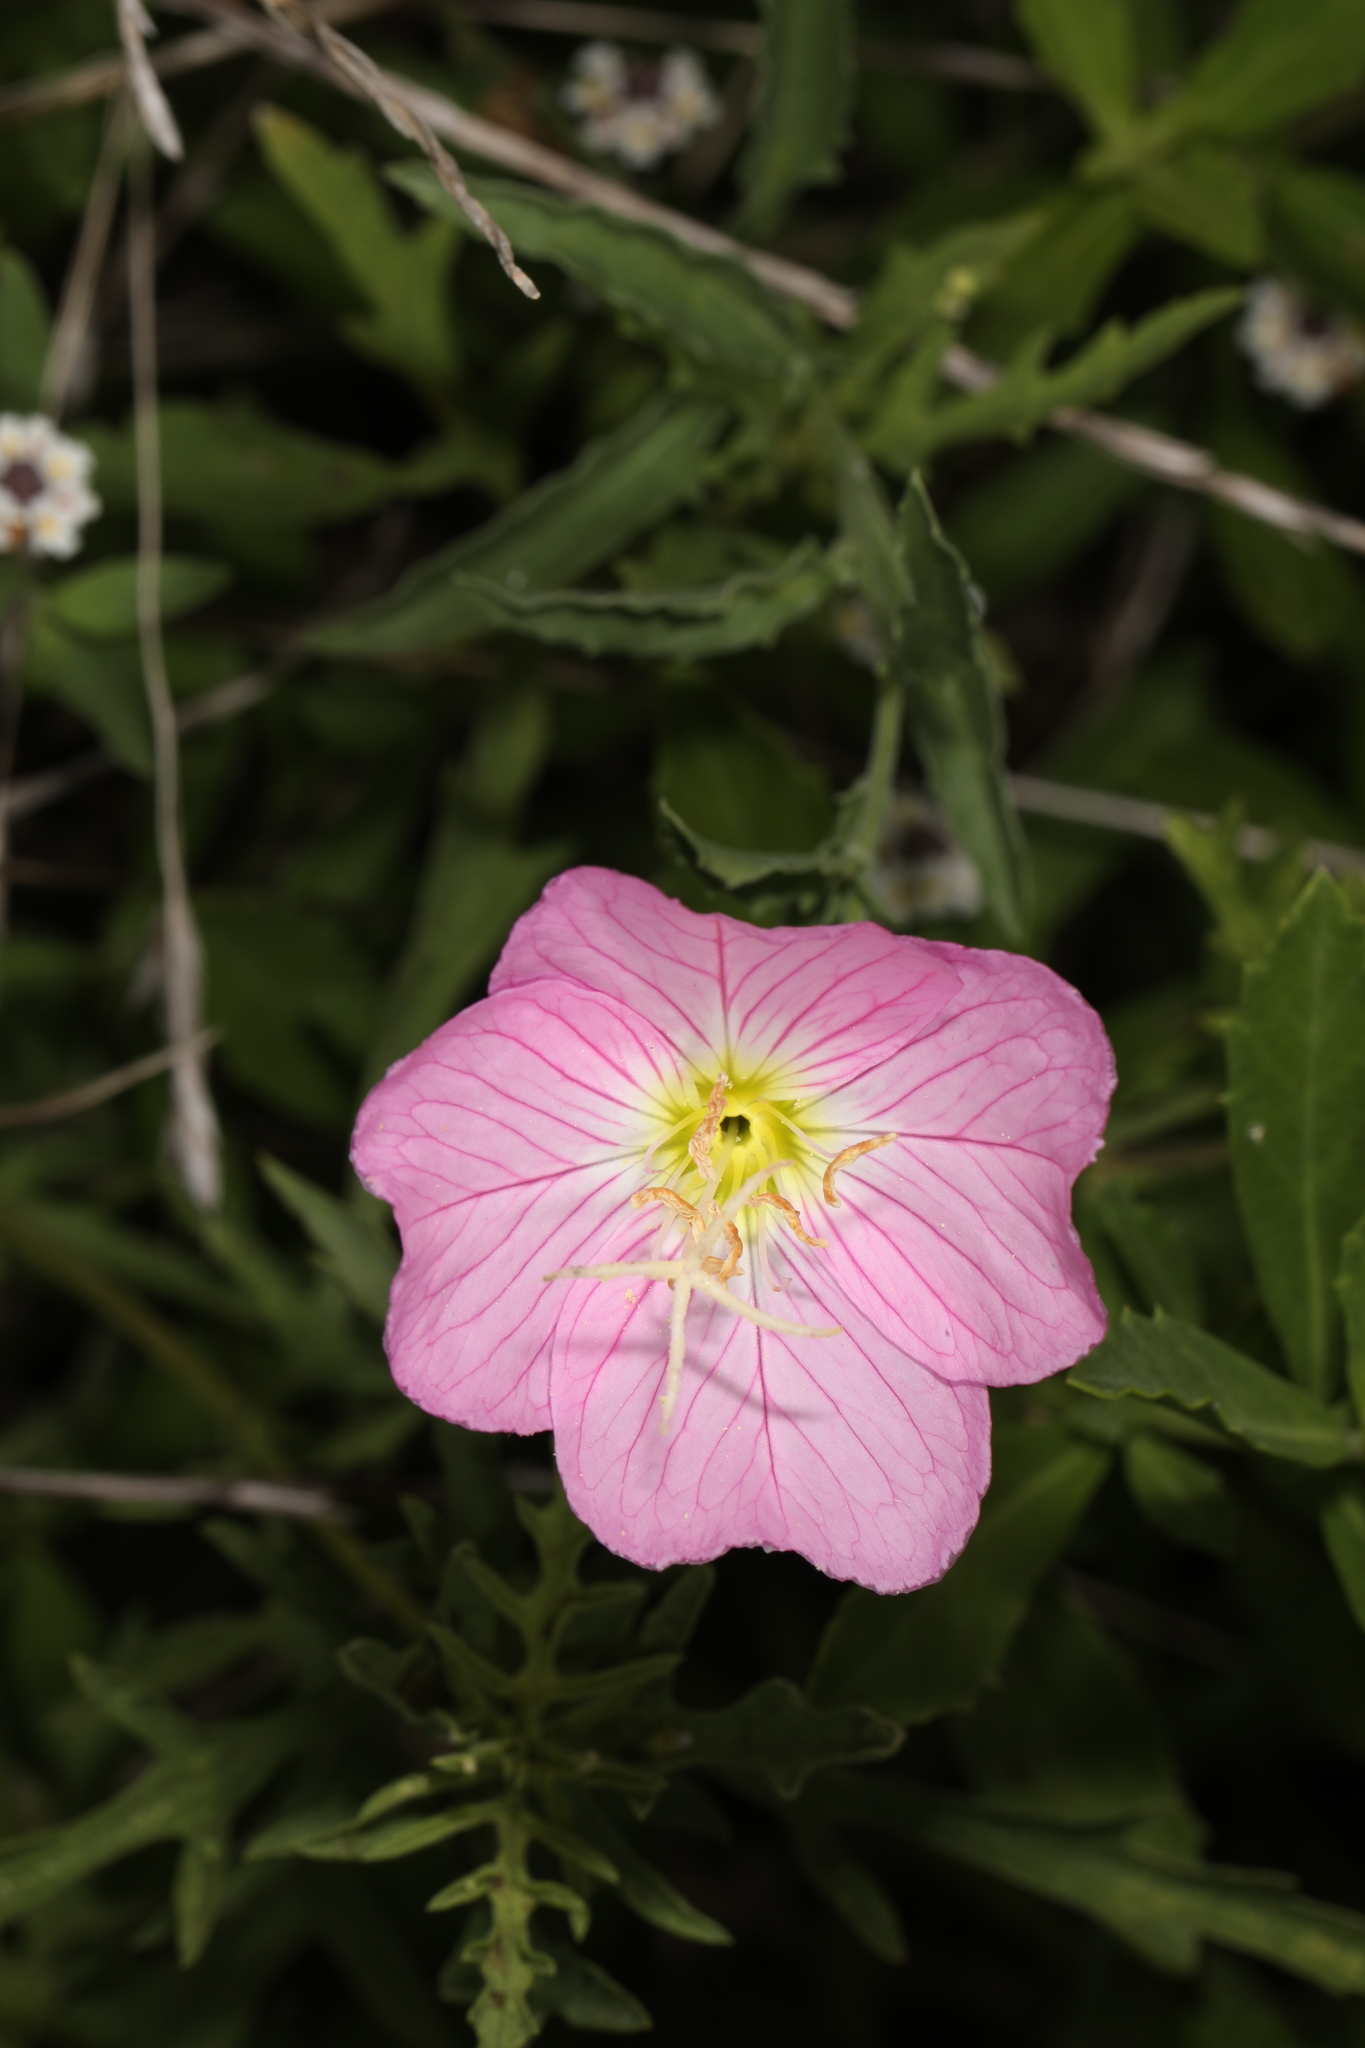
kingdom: Plantae
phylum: Tracheophyta
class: Magnoliopsida
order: Myrtales
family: Onagraceae
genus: Oenothera
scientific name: Oenothera speciosa
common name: White evening-primrose
